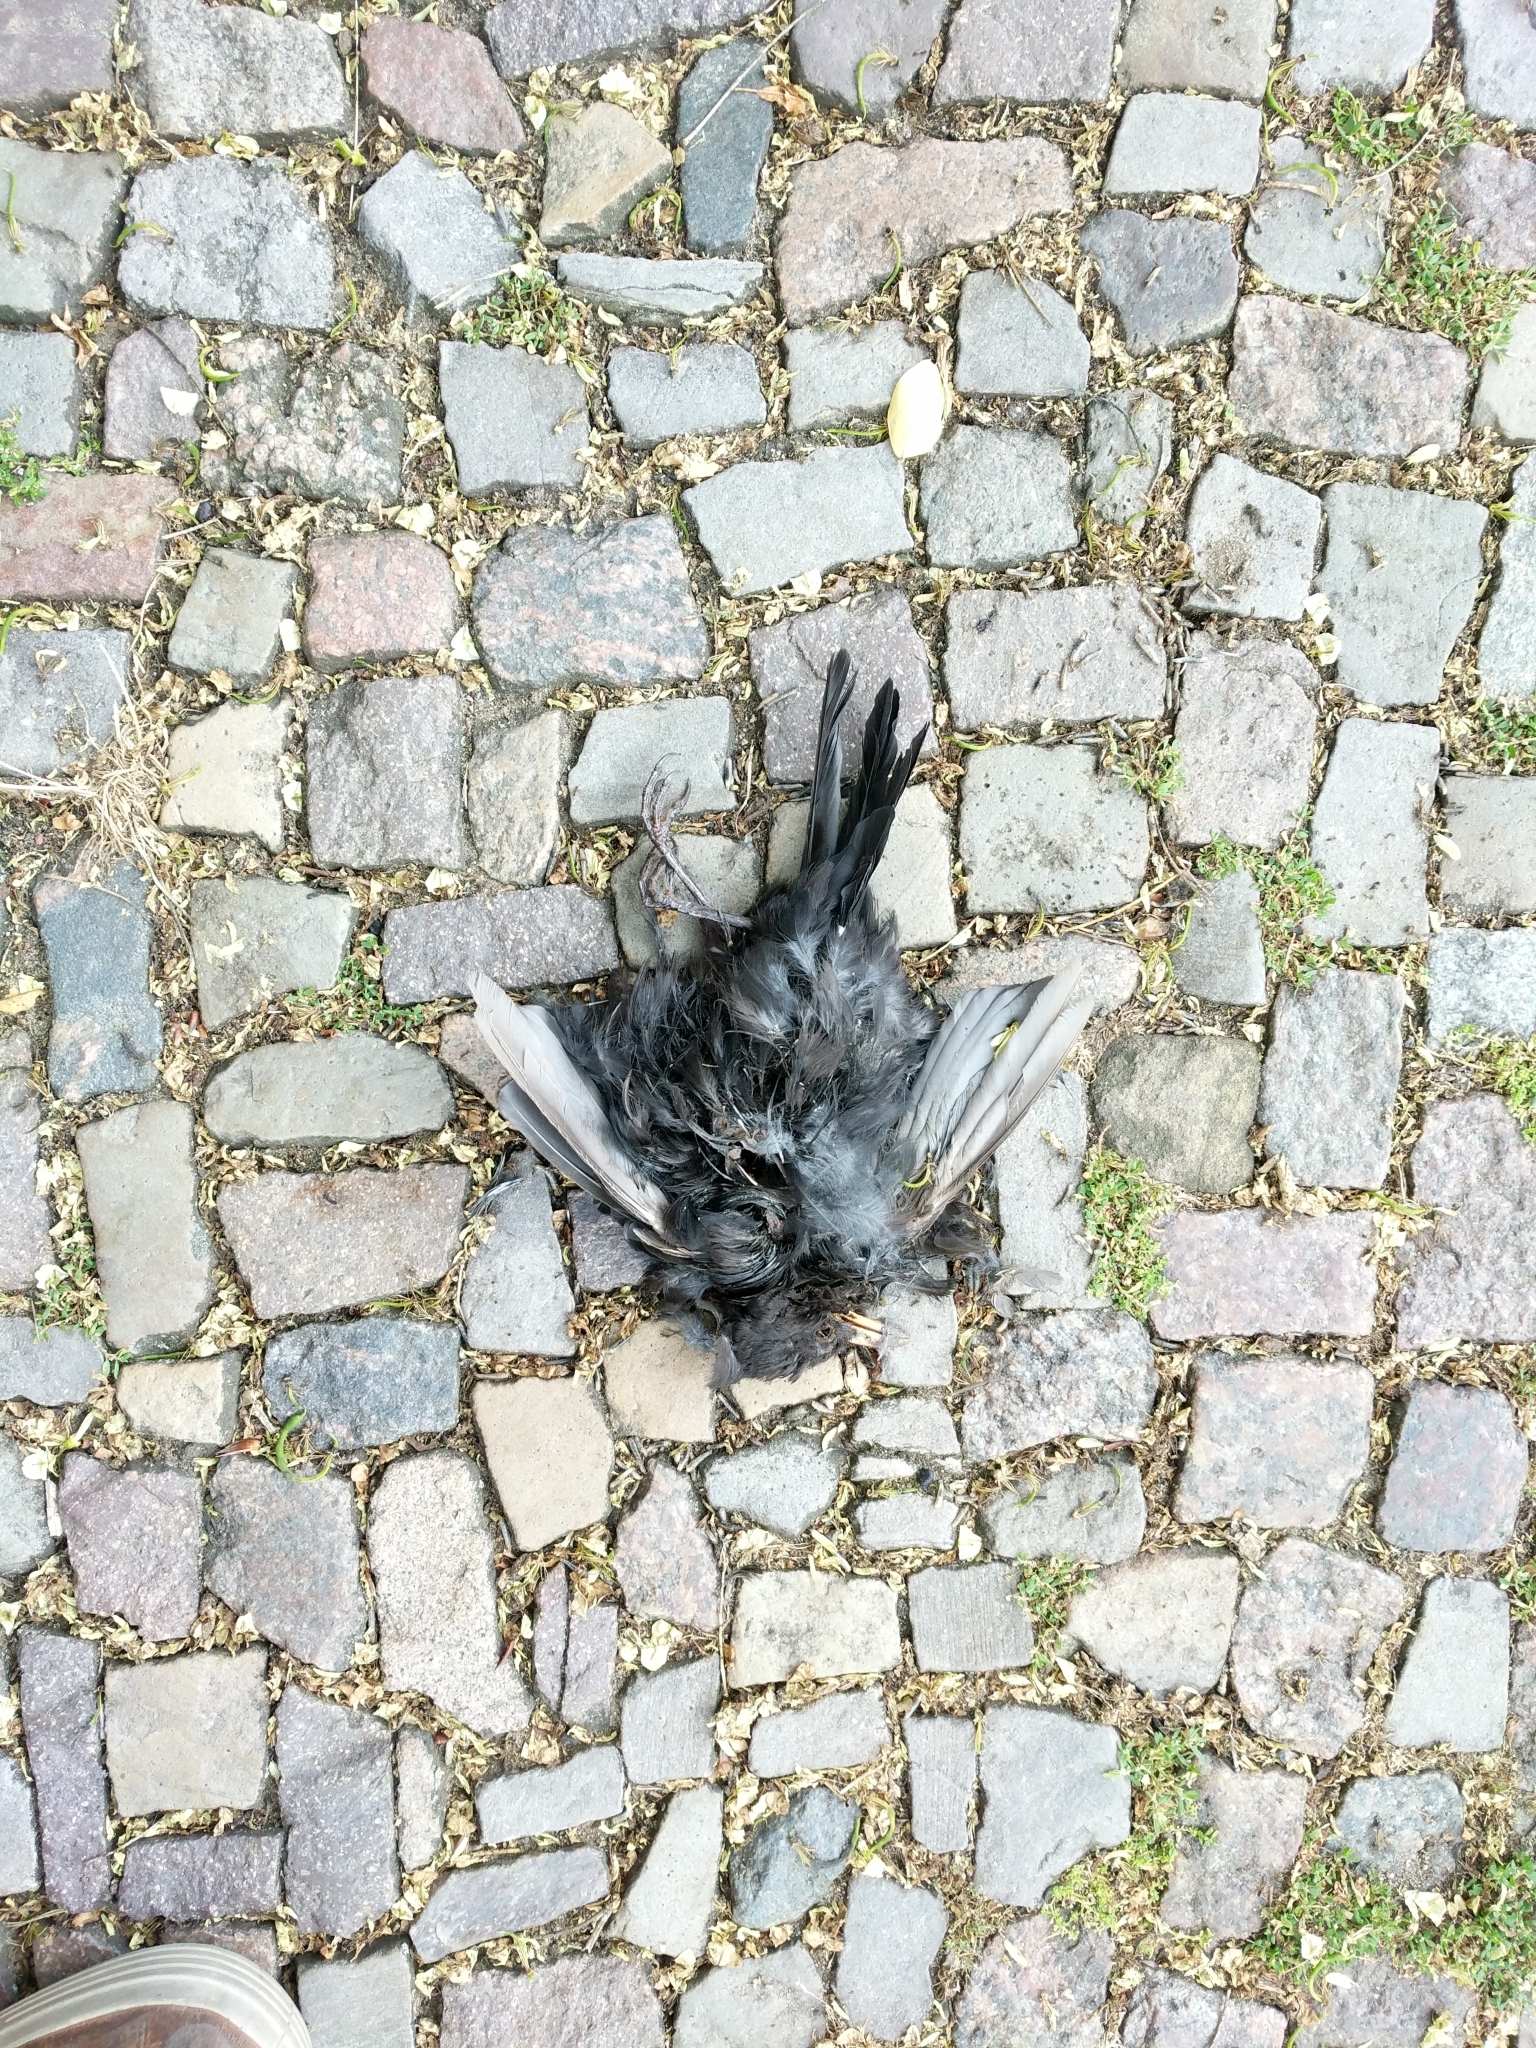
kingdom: Animalia
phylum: Chordata
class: Aves
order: Passeriformes
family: Turdidae
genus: Turdus
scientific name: Turdus merula
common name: Common blackbird
